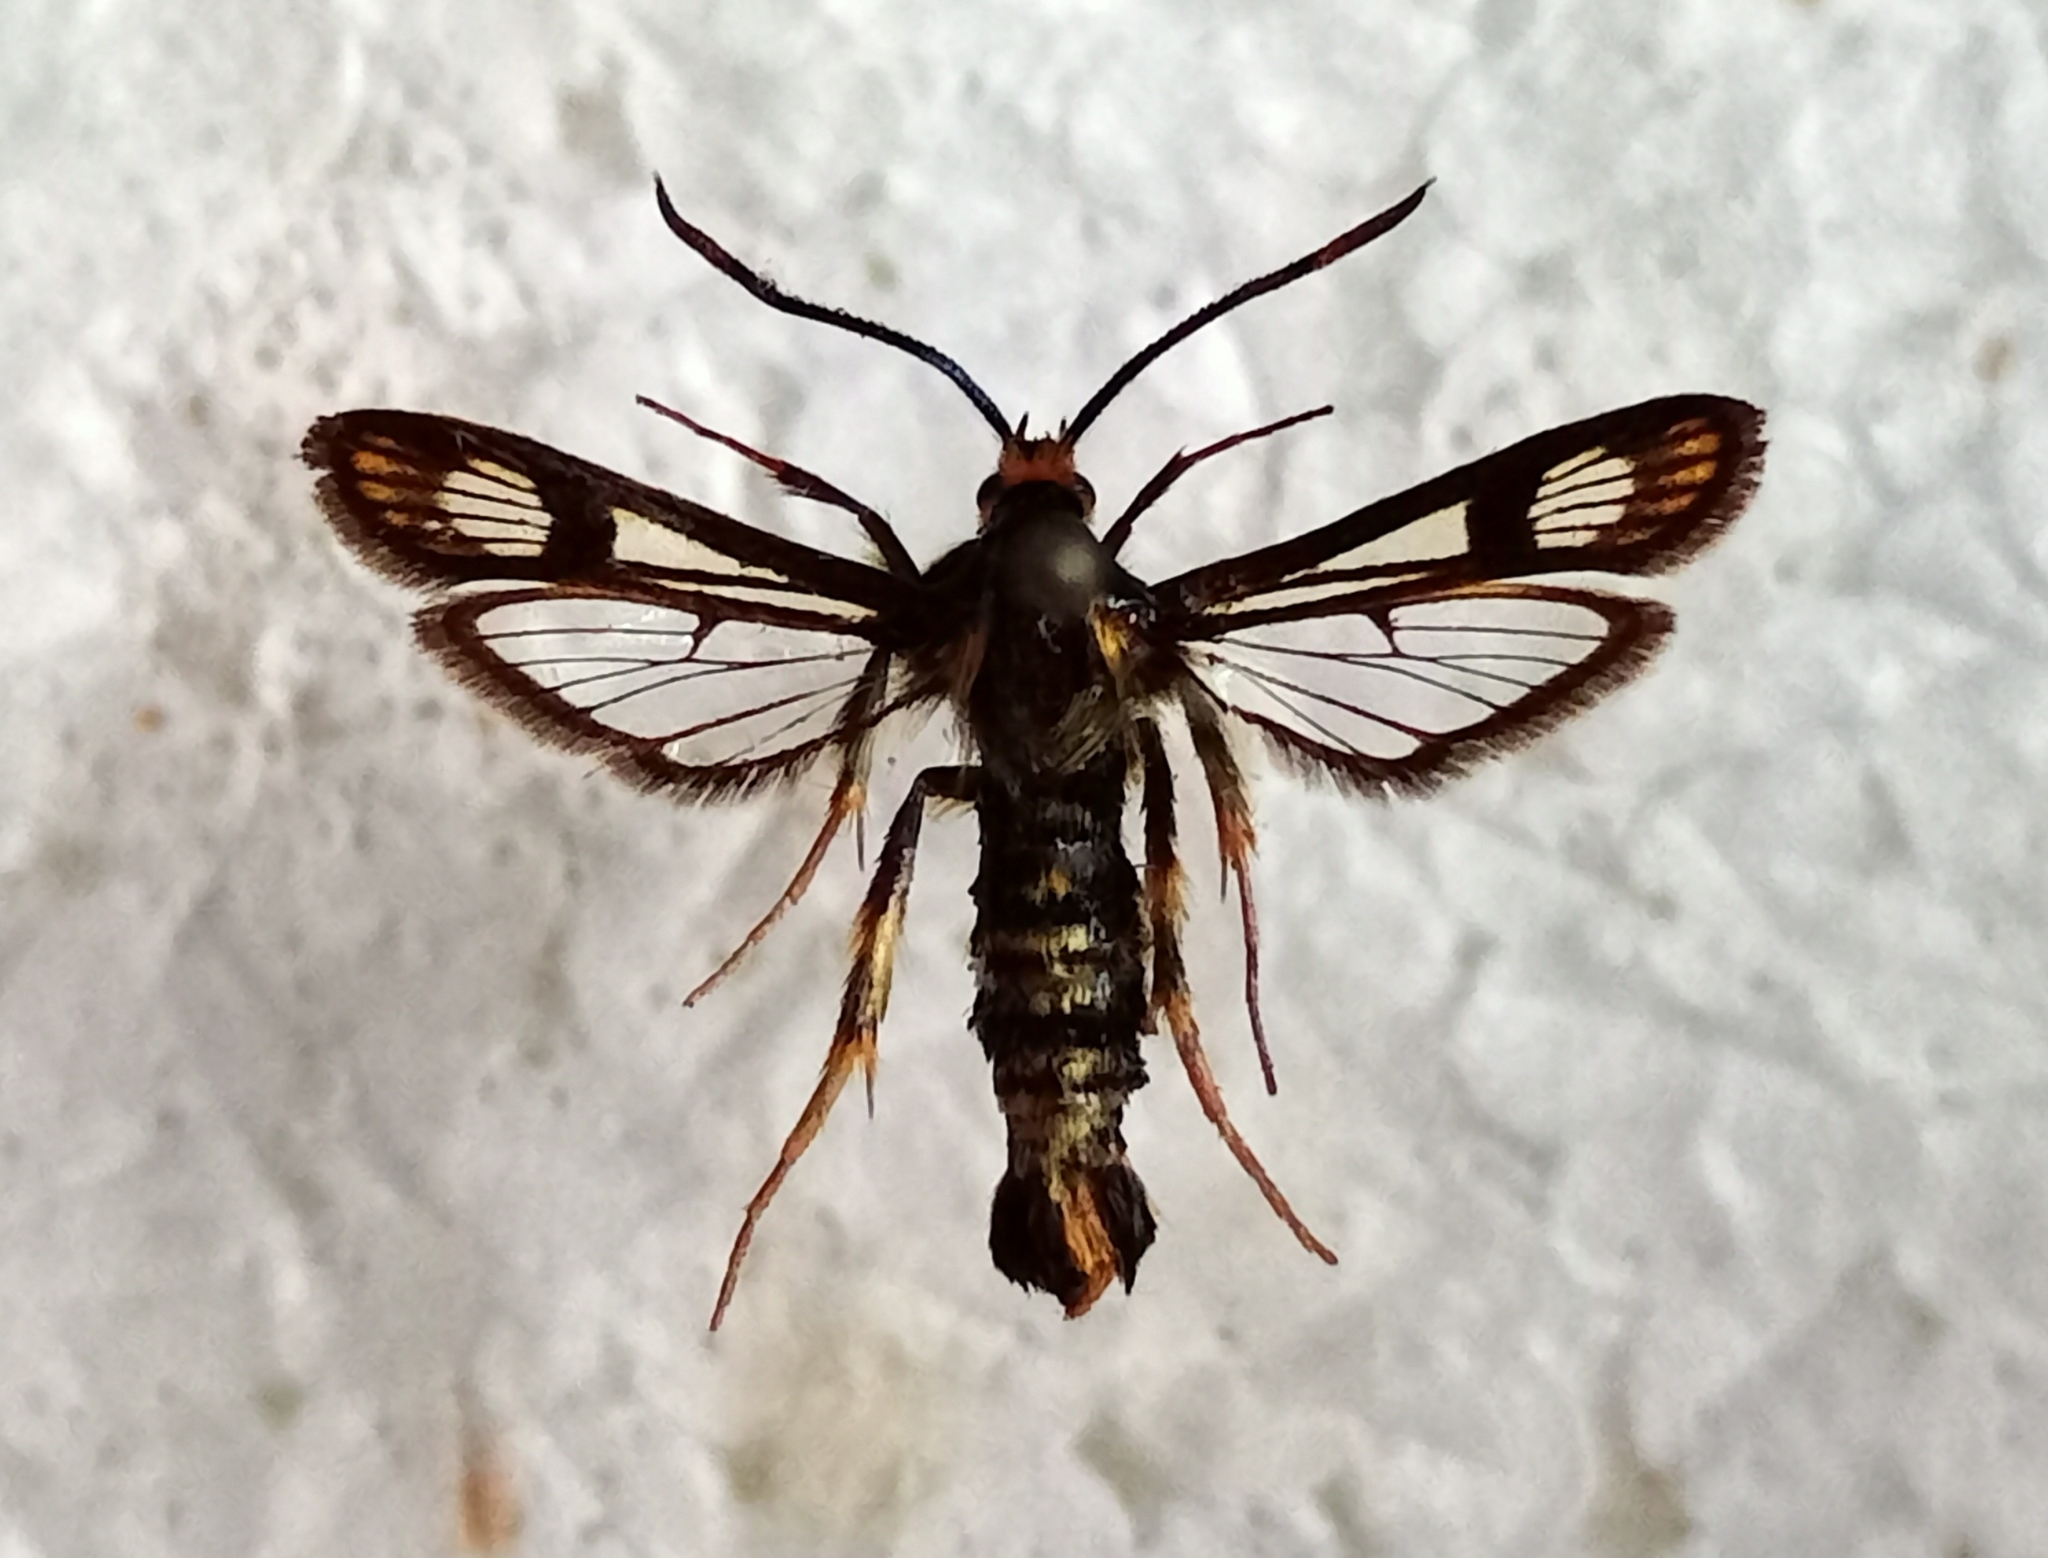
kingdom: Animalia
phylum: Arthropoda
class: Insecta
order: Lepidoptera
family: Sesiidae
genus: Chamaesphecia
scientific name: Chamaesphecia hungarica
